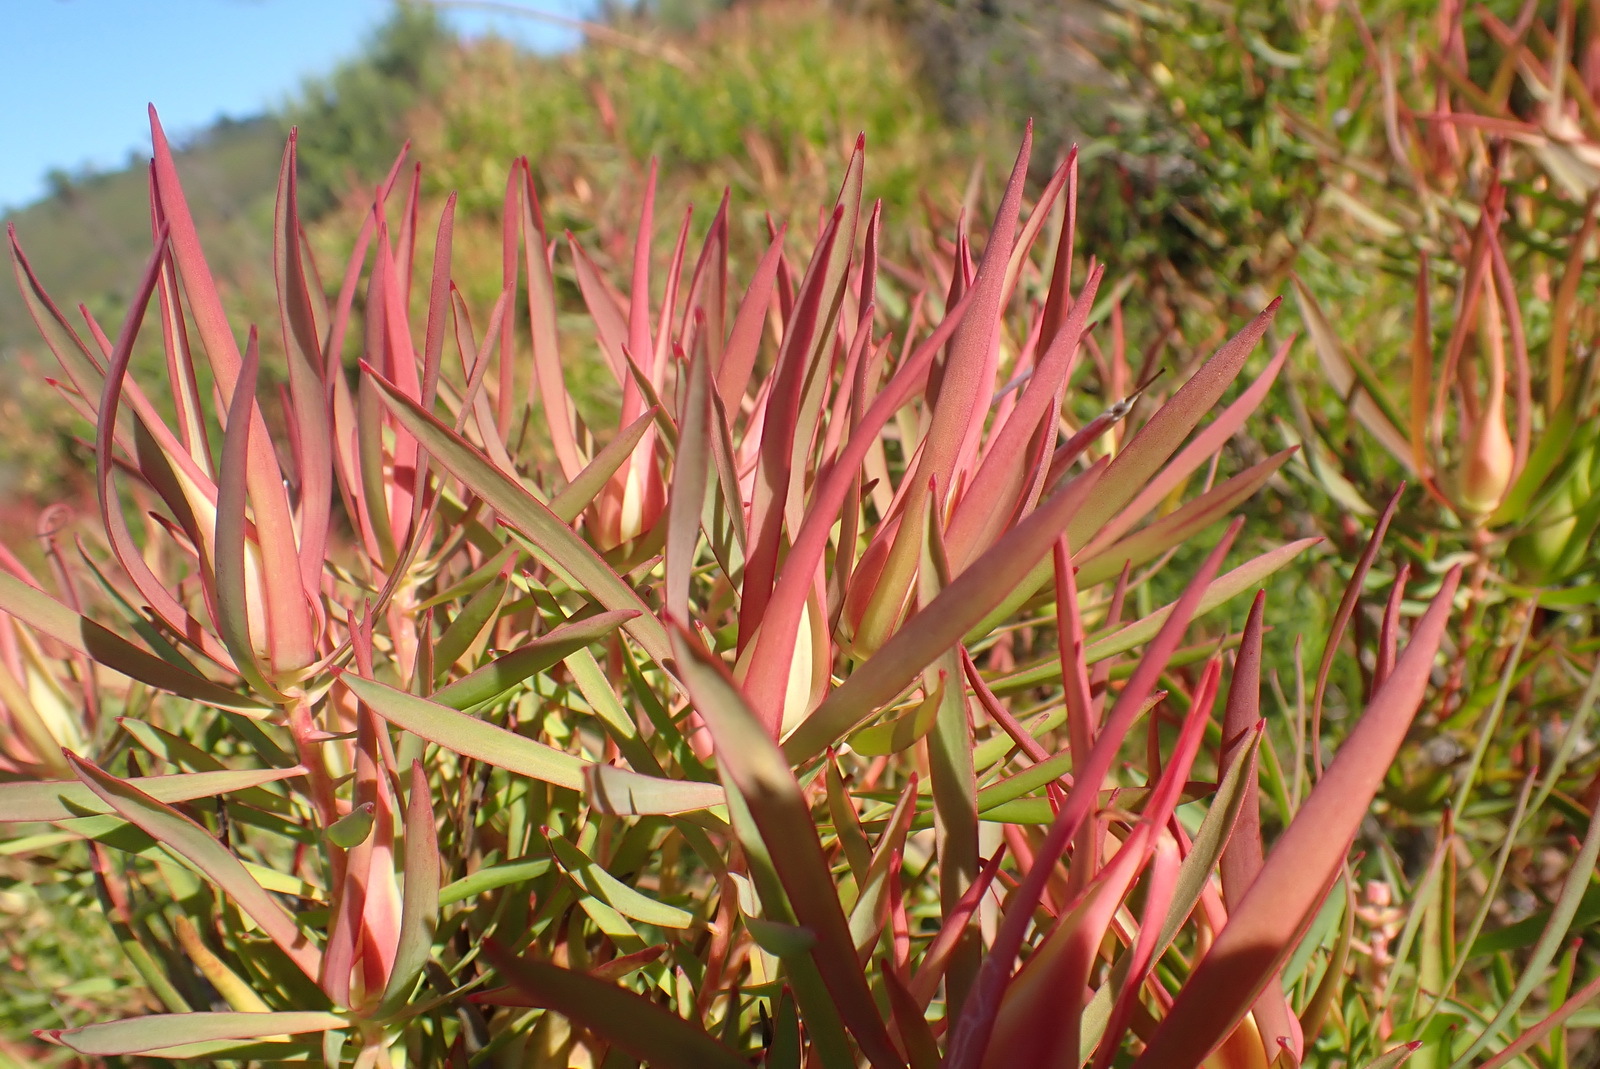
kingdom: Plantae
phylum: Tracheophyta
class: Magnoliopsida
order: Proteales
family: Proteaceae
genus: Leucadendron
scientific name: Leucadendron salignum
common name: Common sunshine conebush
